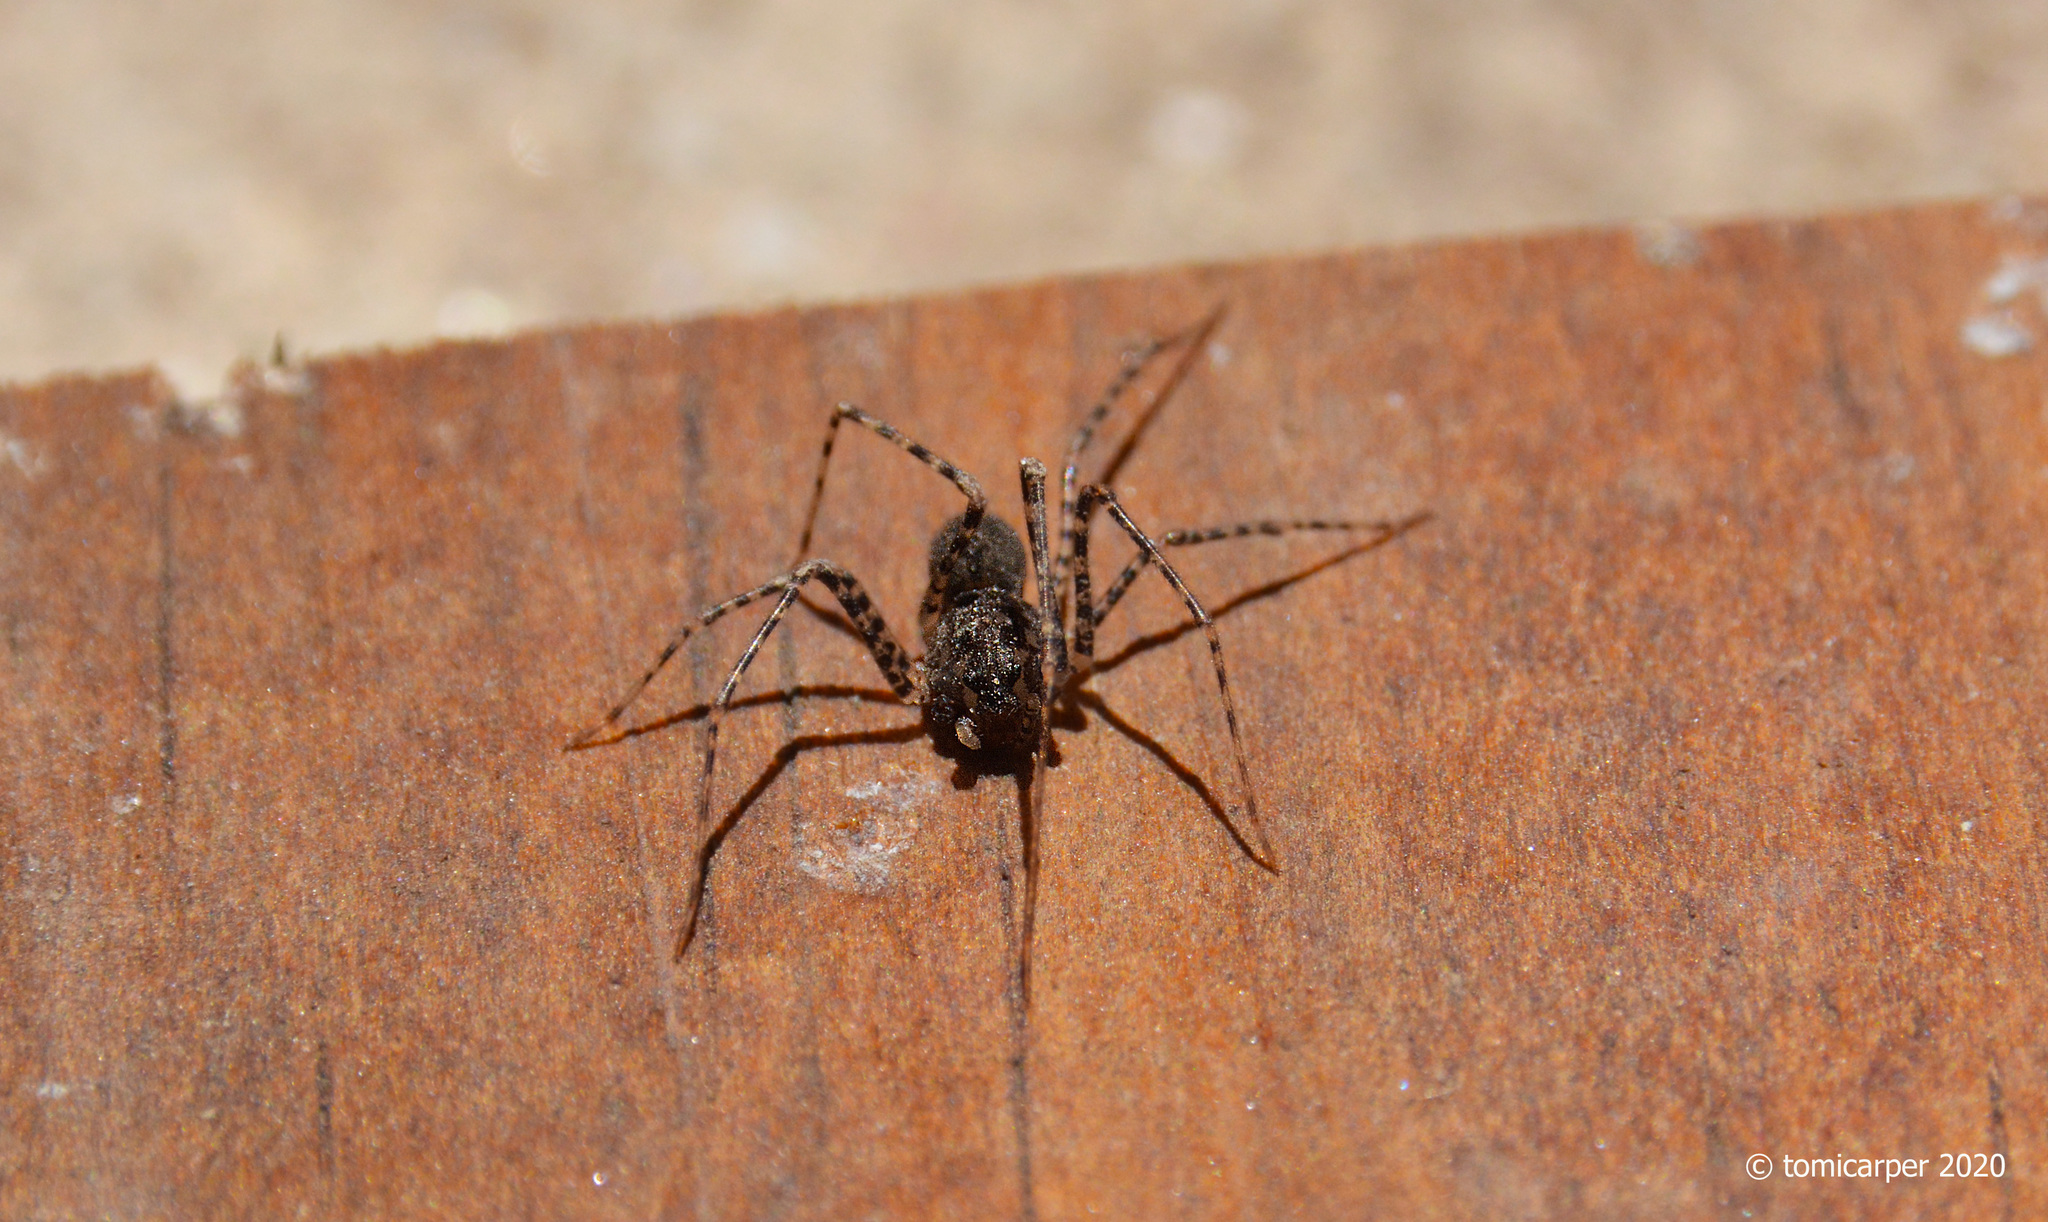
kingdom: Animalia
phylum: Arthropoda
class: Arachnida
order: Araneae
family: Scytodidae
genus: Scytodes
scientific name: Scytodes globula
